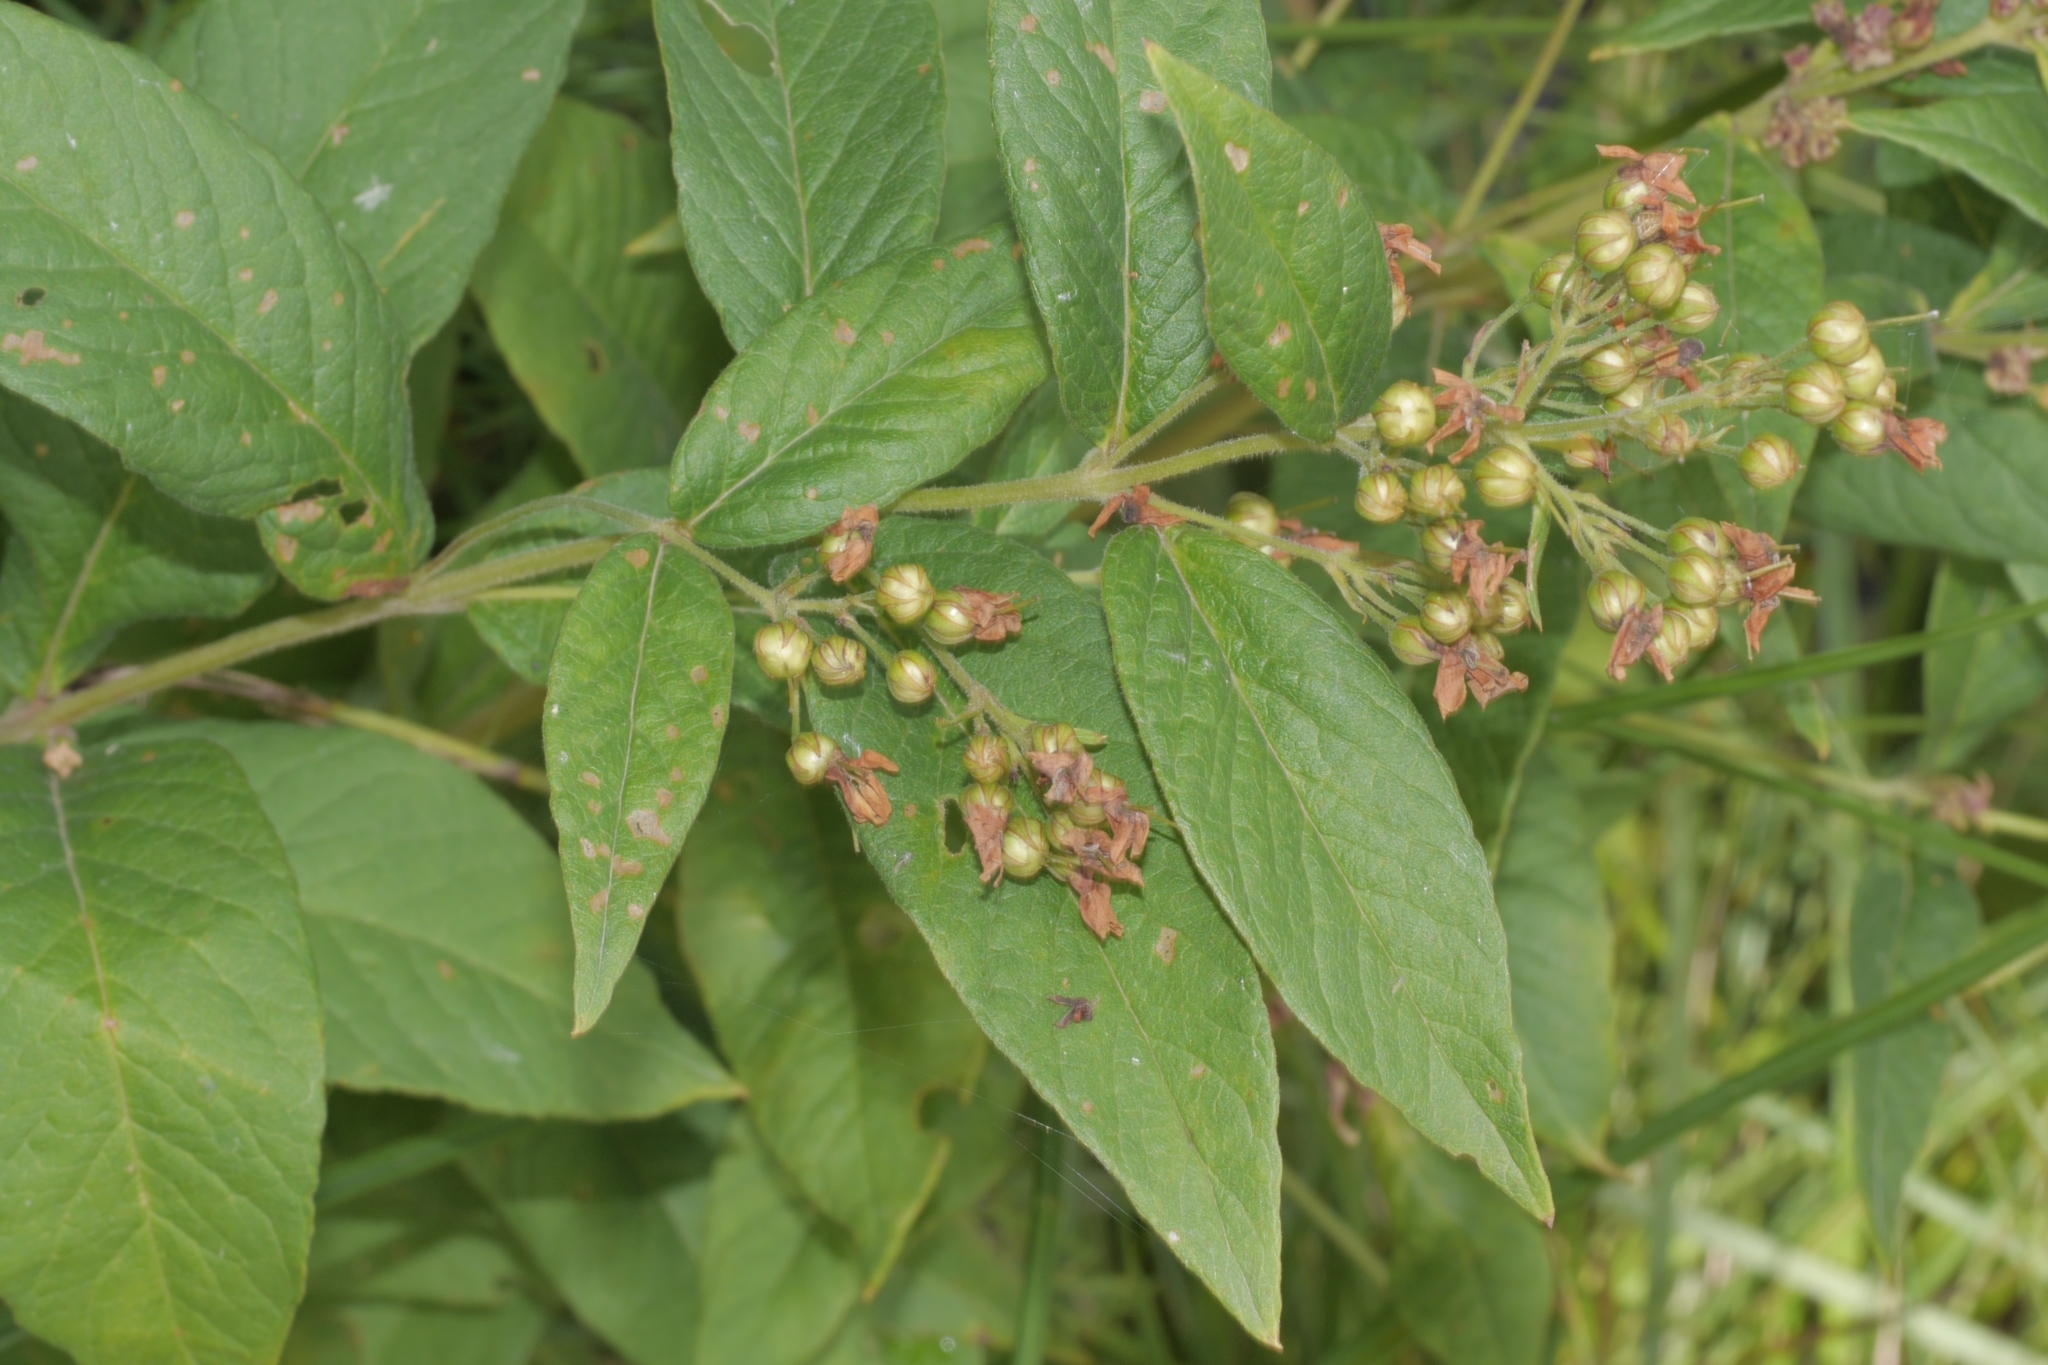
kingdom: Plantae
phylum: Tracheophyta
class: Magnoliopsida
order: Ericales
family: Primulaceae
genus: Lysimachia
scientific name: Lysimachia vulgaris
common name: Yellow loosestrife
